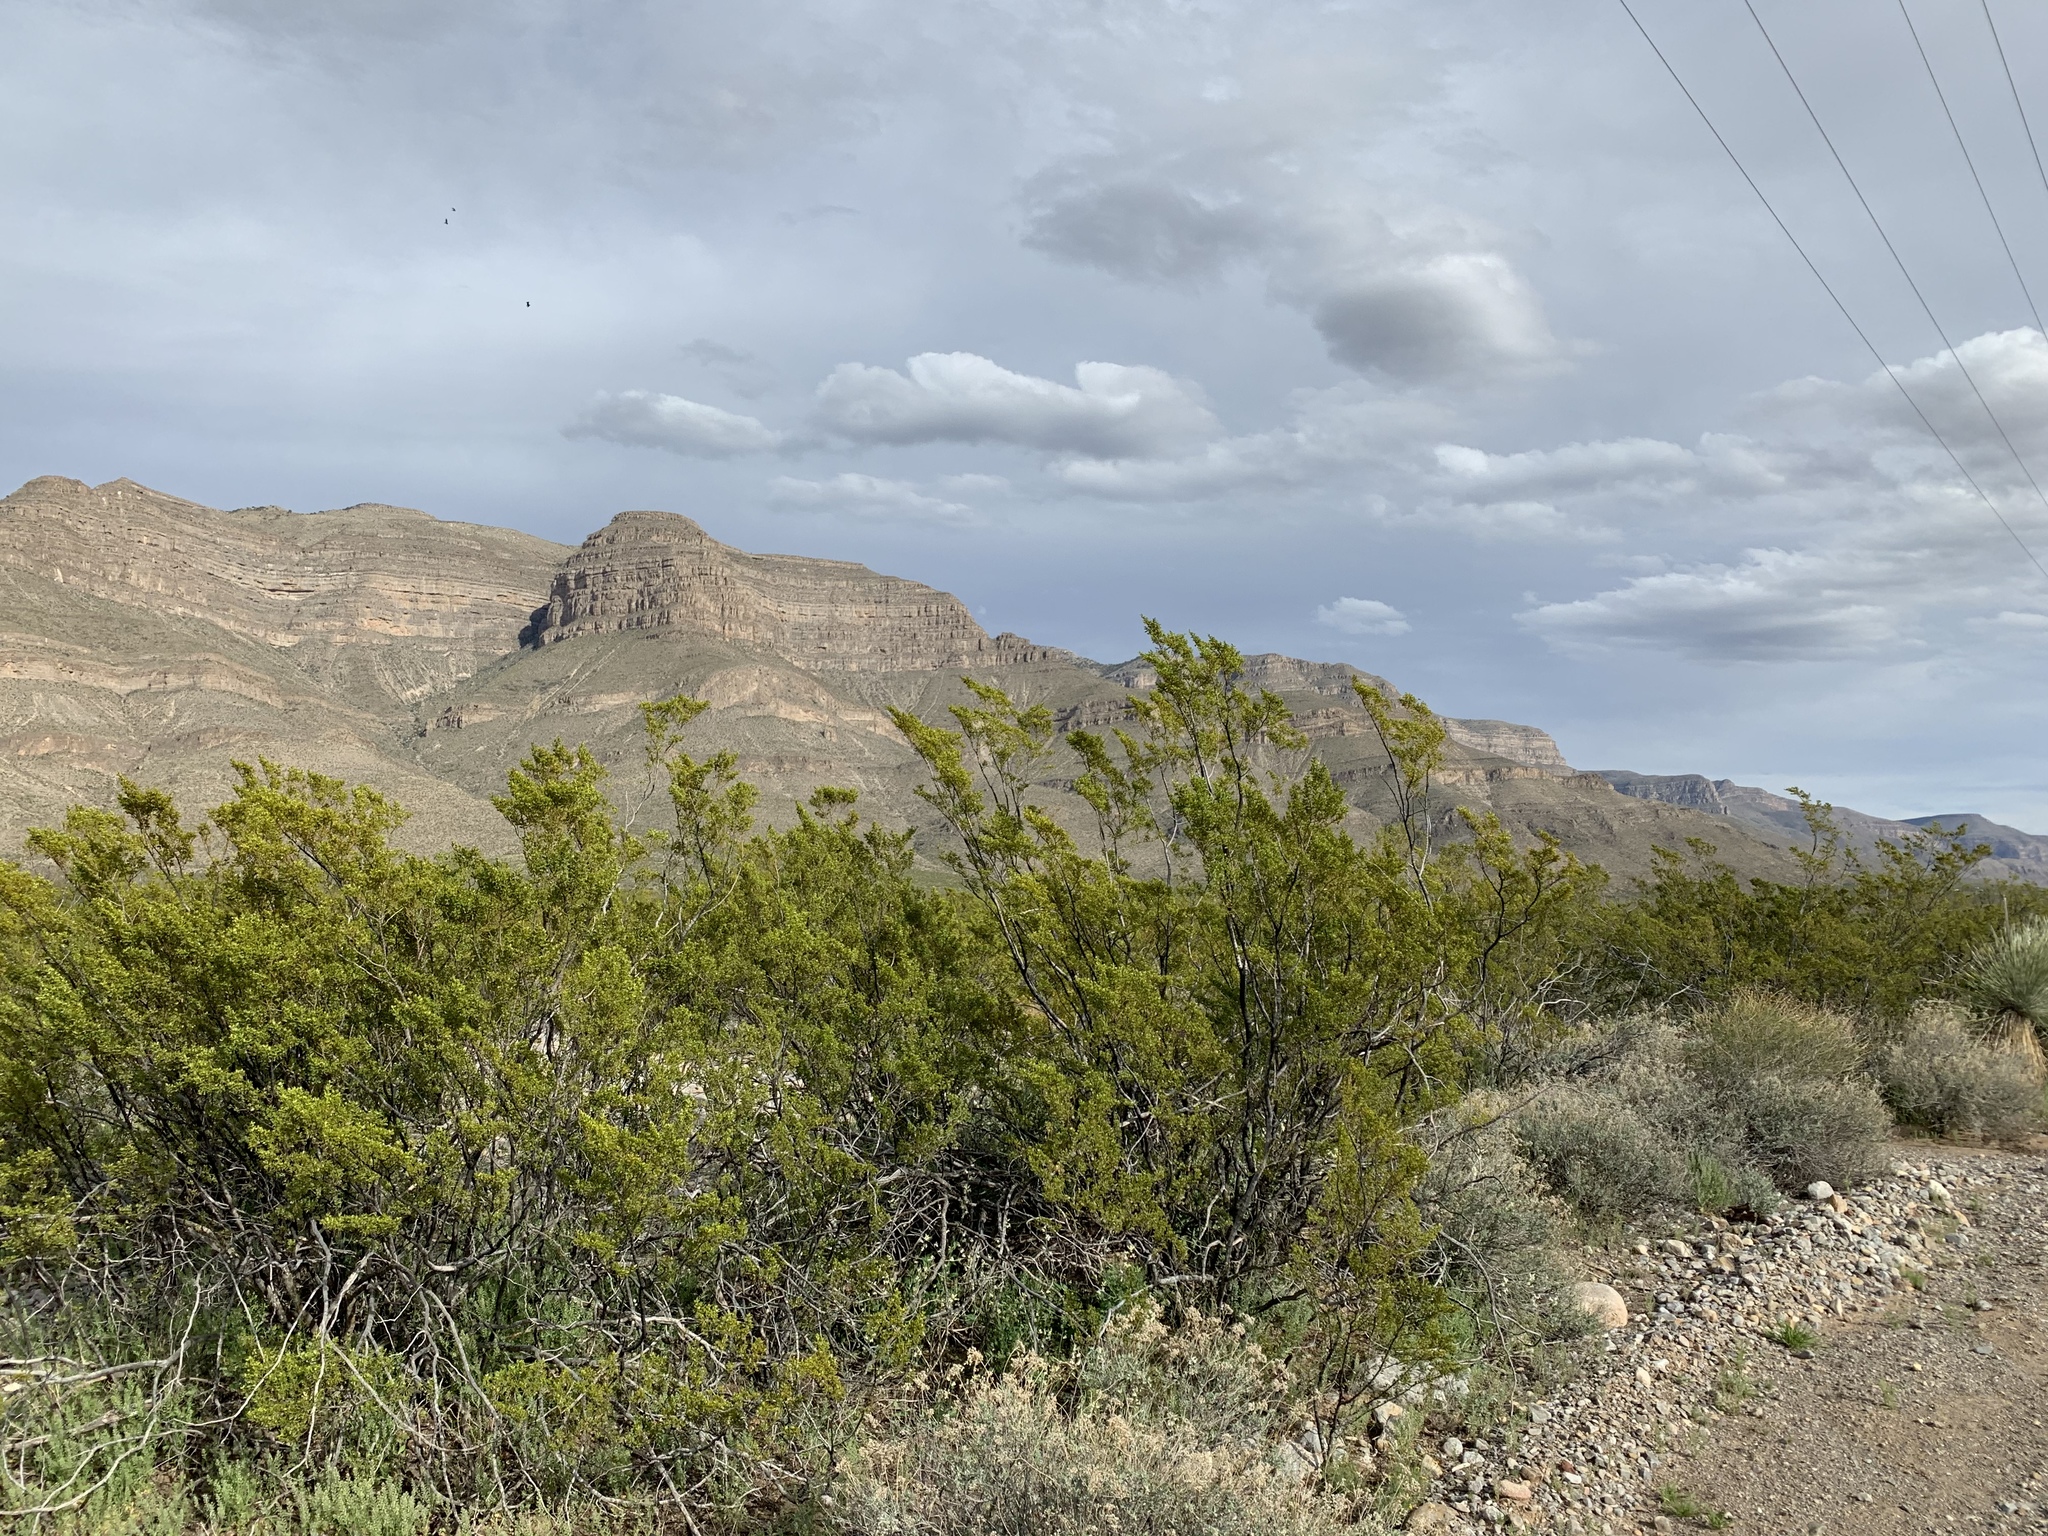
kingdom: Plantae
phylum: Tracheophyta
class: Magnoliopsida
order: Zygophyllales
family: Zygophyllaceae
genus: Larrea
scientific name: Larrea tridentata
